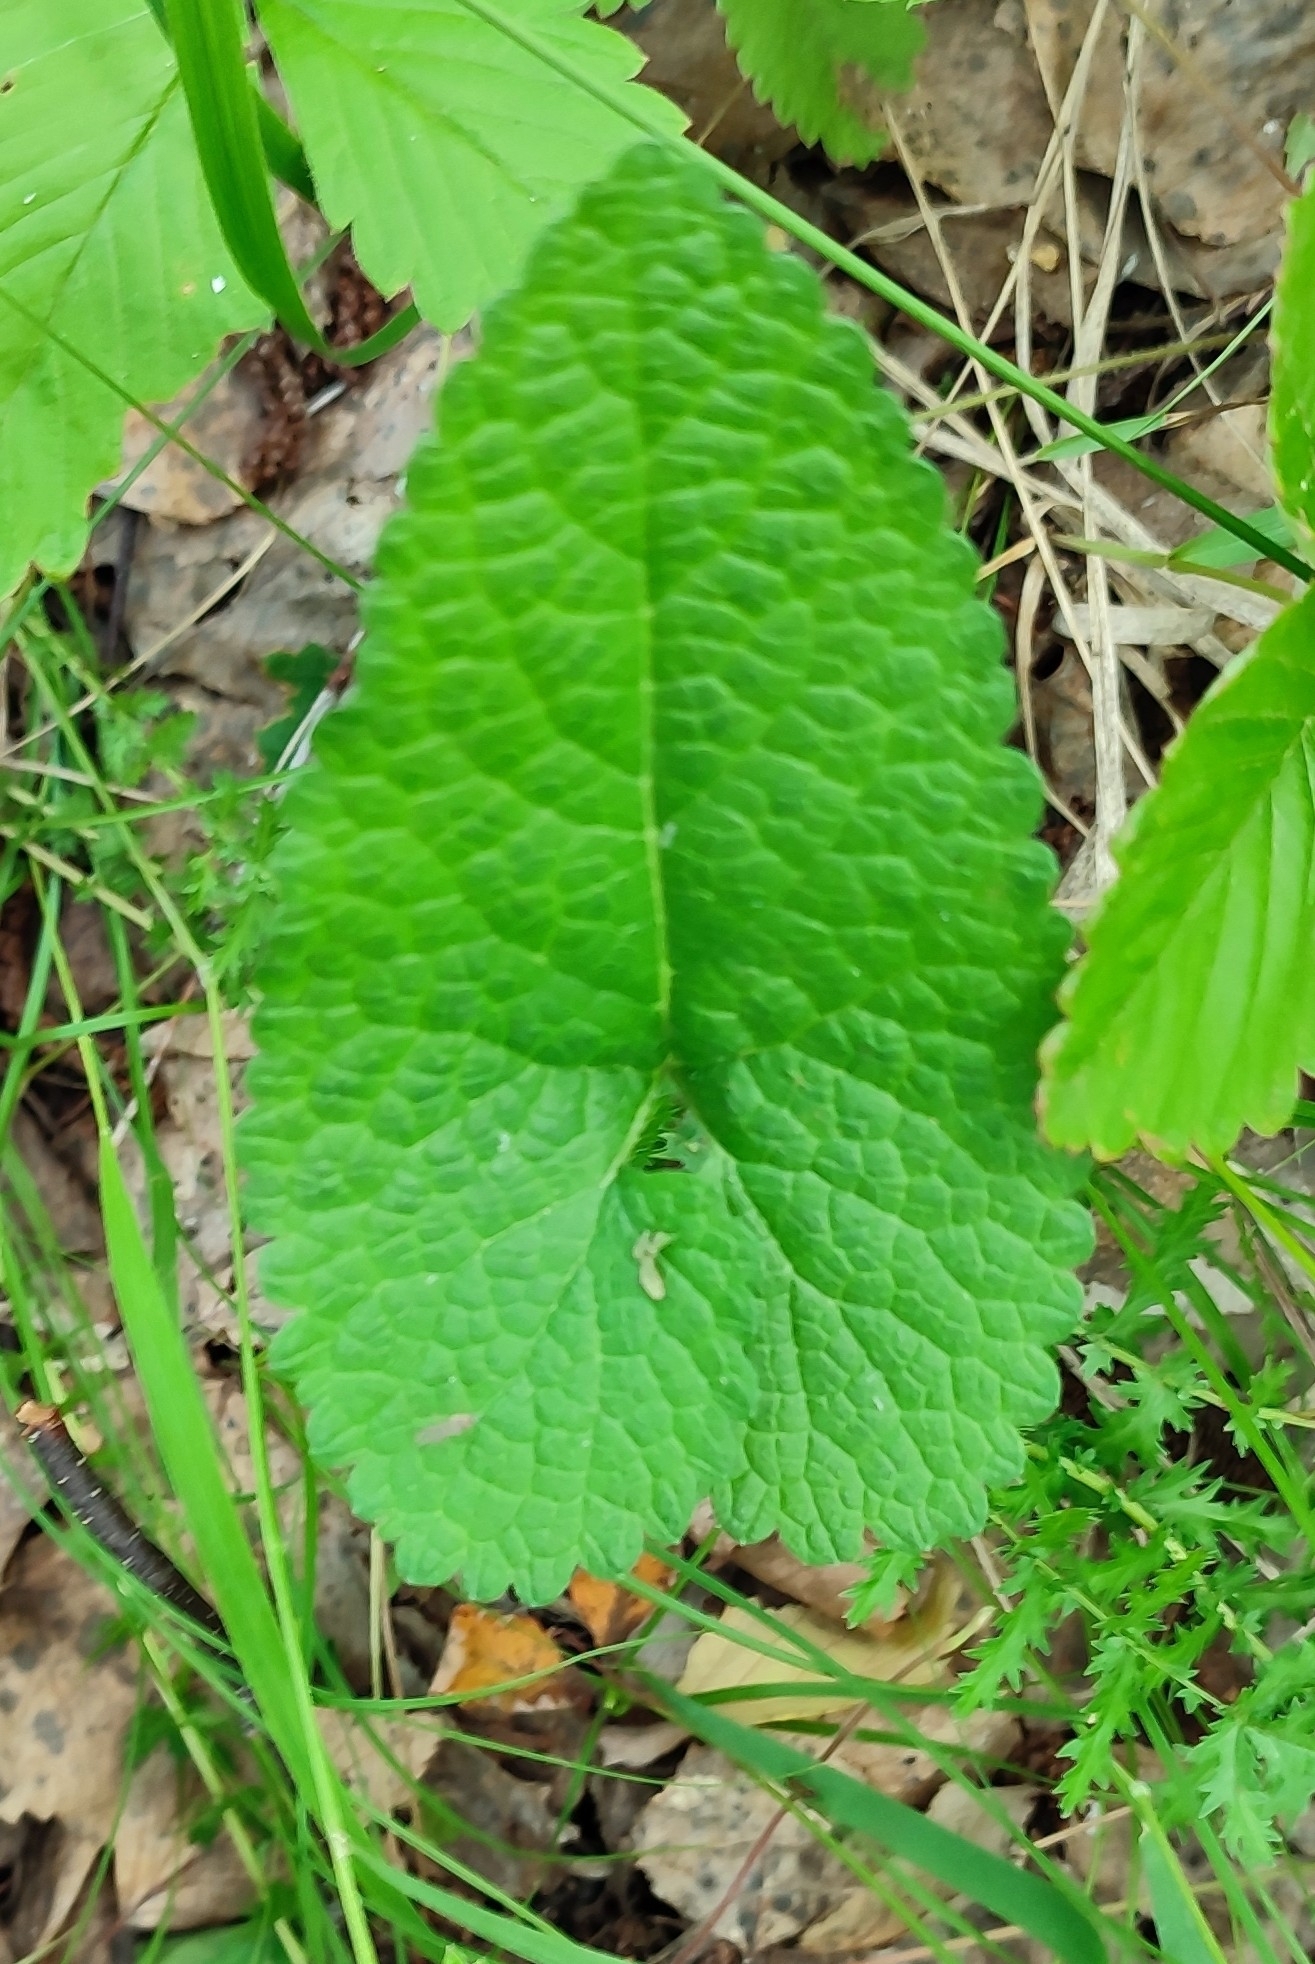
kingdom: Plantae
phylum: Tracheophyta
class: Magnoliopsida
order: Lamiales
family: Lamiaceae
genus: Phlomoides
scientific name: Phlomoides tuberosa
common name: Tuberous jerusalem sage
